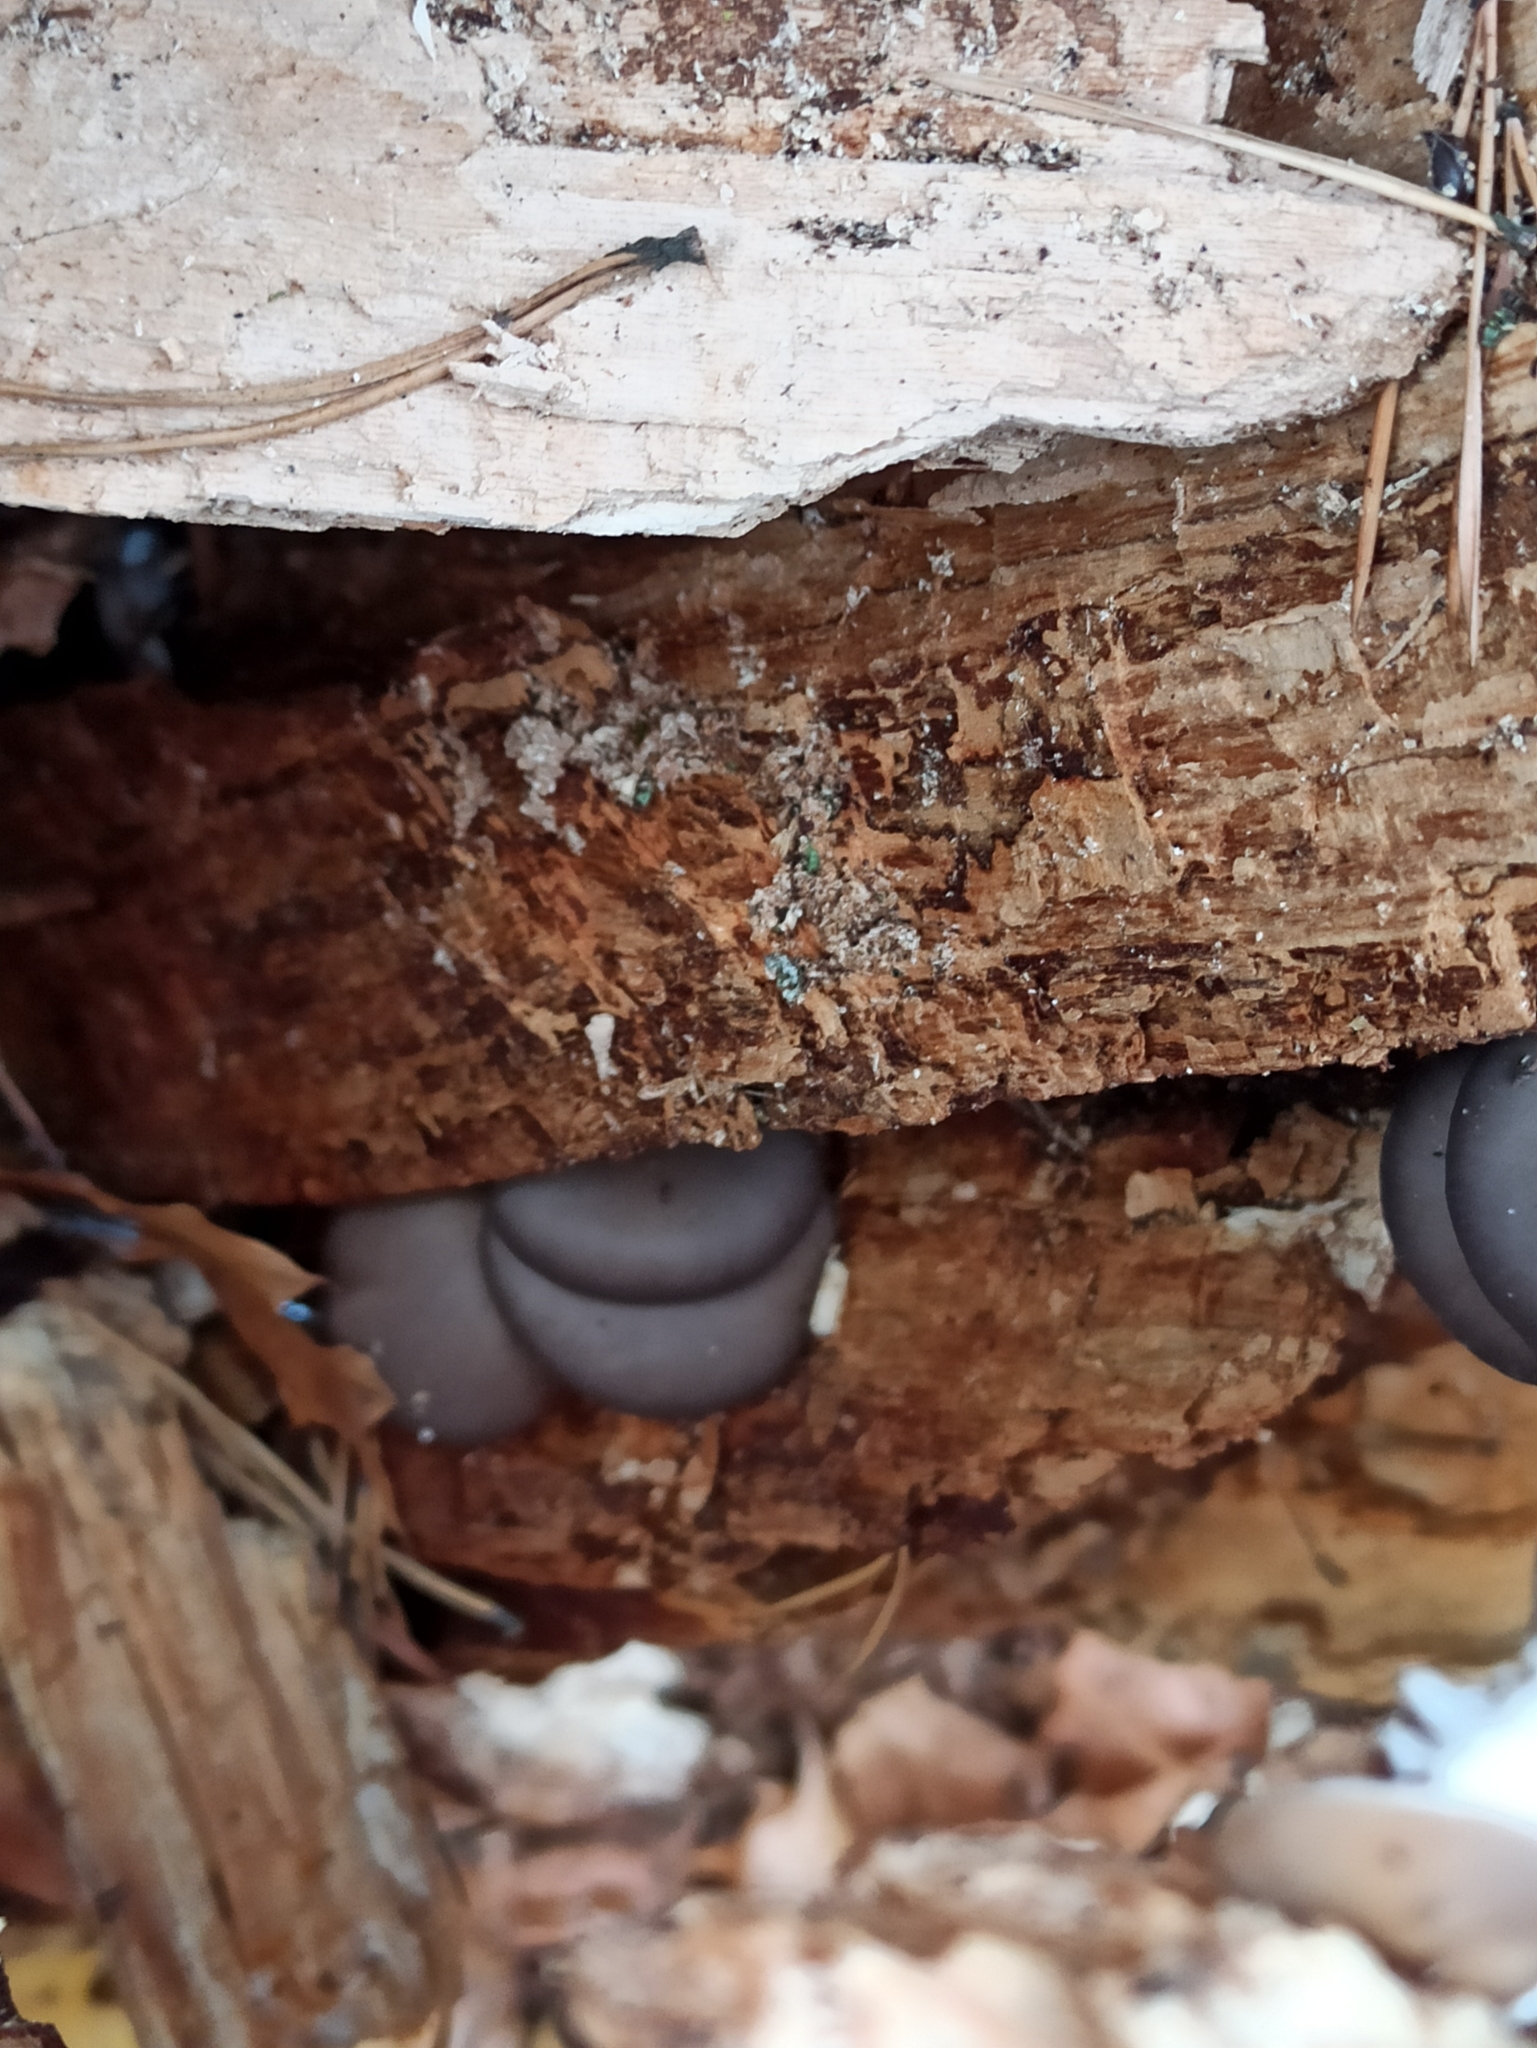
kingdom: Fungi
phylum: Basidiomycota
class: Agaricomycetes
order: Agaricales
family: Pleurotaceae
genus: Pleurotus
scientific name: Pleurotus ostreatus
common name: Oyster mushroom
